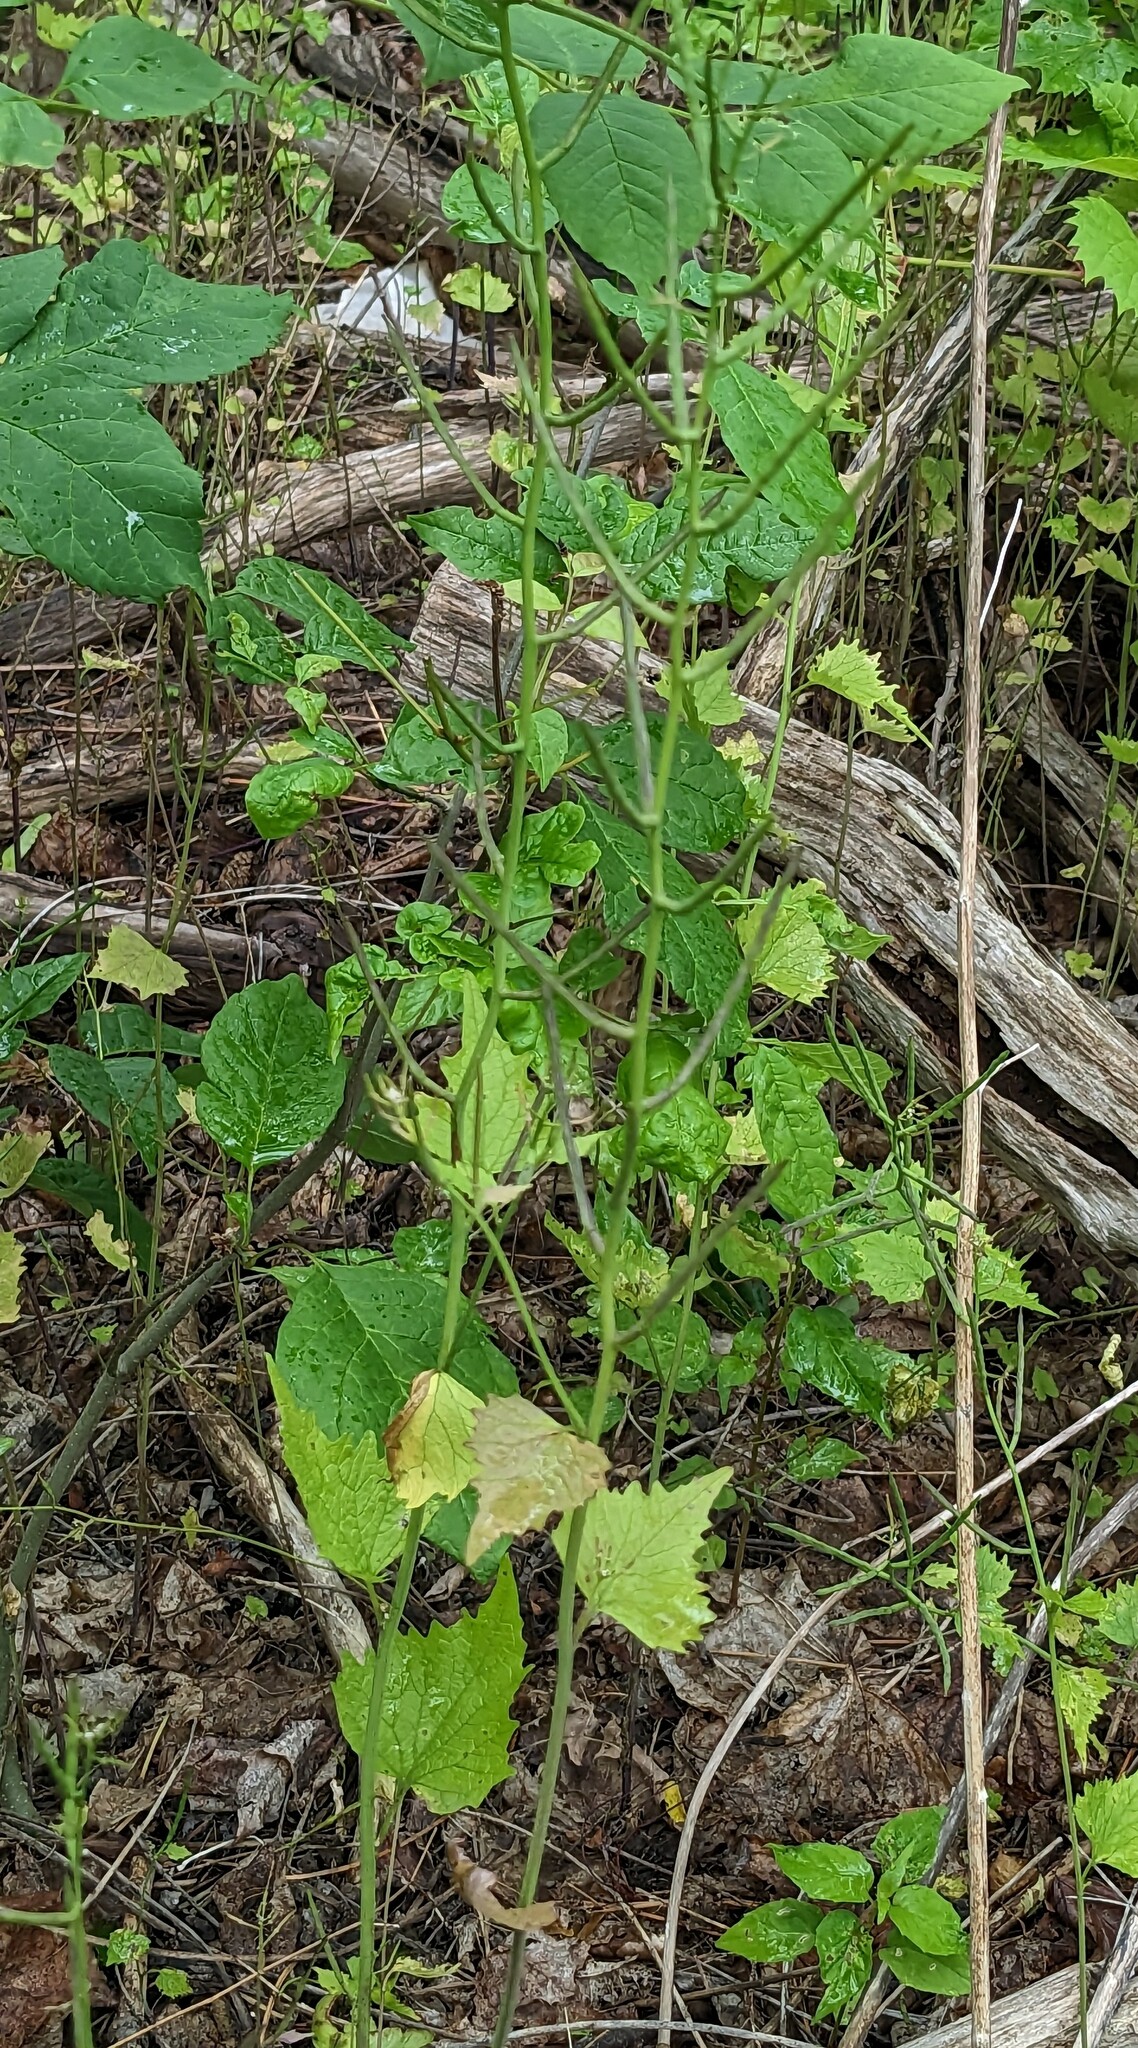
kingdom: Plantae
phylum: Tracheophyta
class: Magnoliopsida
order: Brassicales
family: Brassicaceae
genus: Alliaria
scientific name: Alliaria petiolata
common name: Garlic mustard
